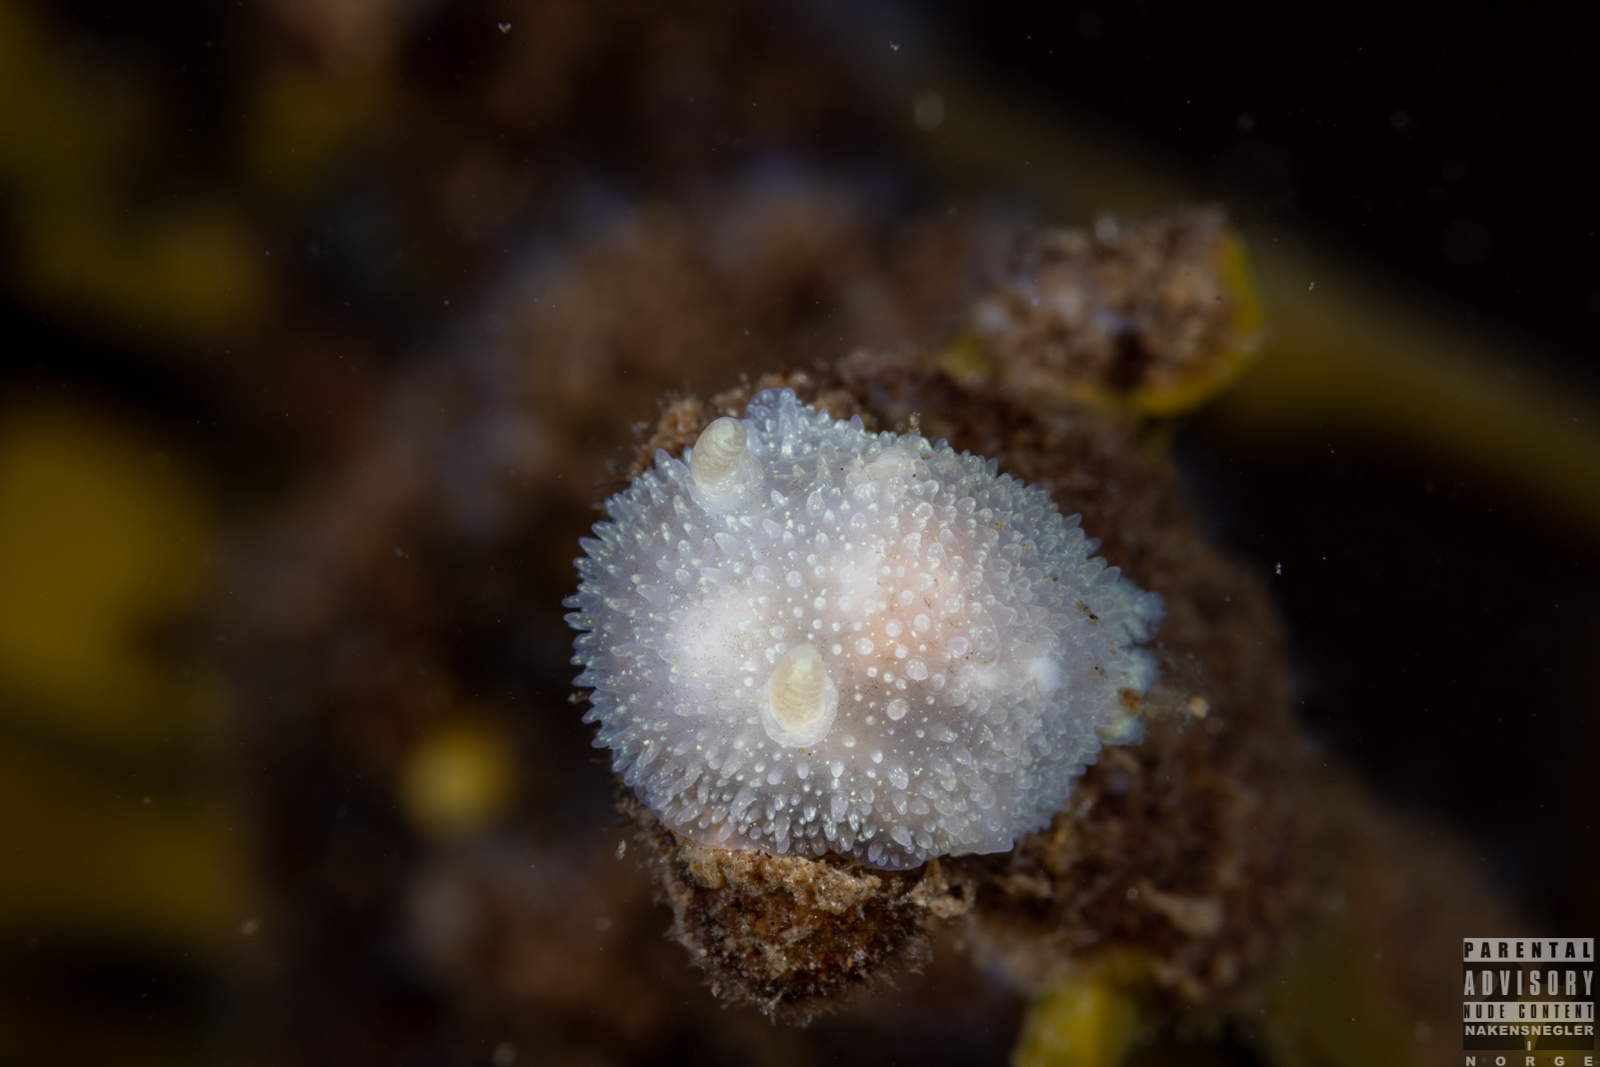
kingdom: Animalia
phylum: Mollusca
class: Gastropoda
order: Nudibranchia
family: Onchidorididae
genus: Acanthodoris
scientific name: Acanthodoris pilosa
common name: Hairy spiny doris
